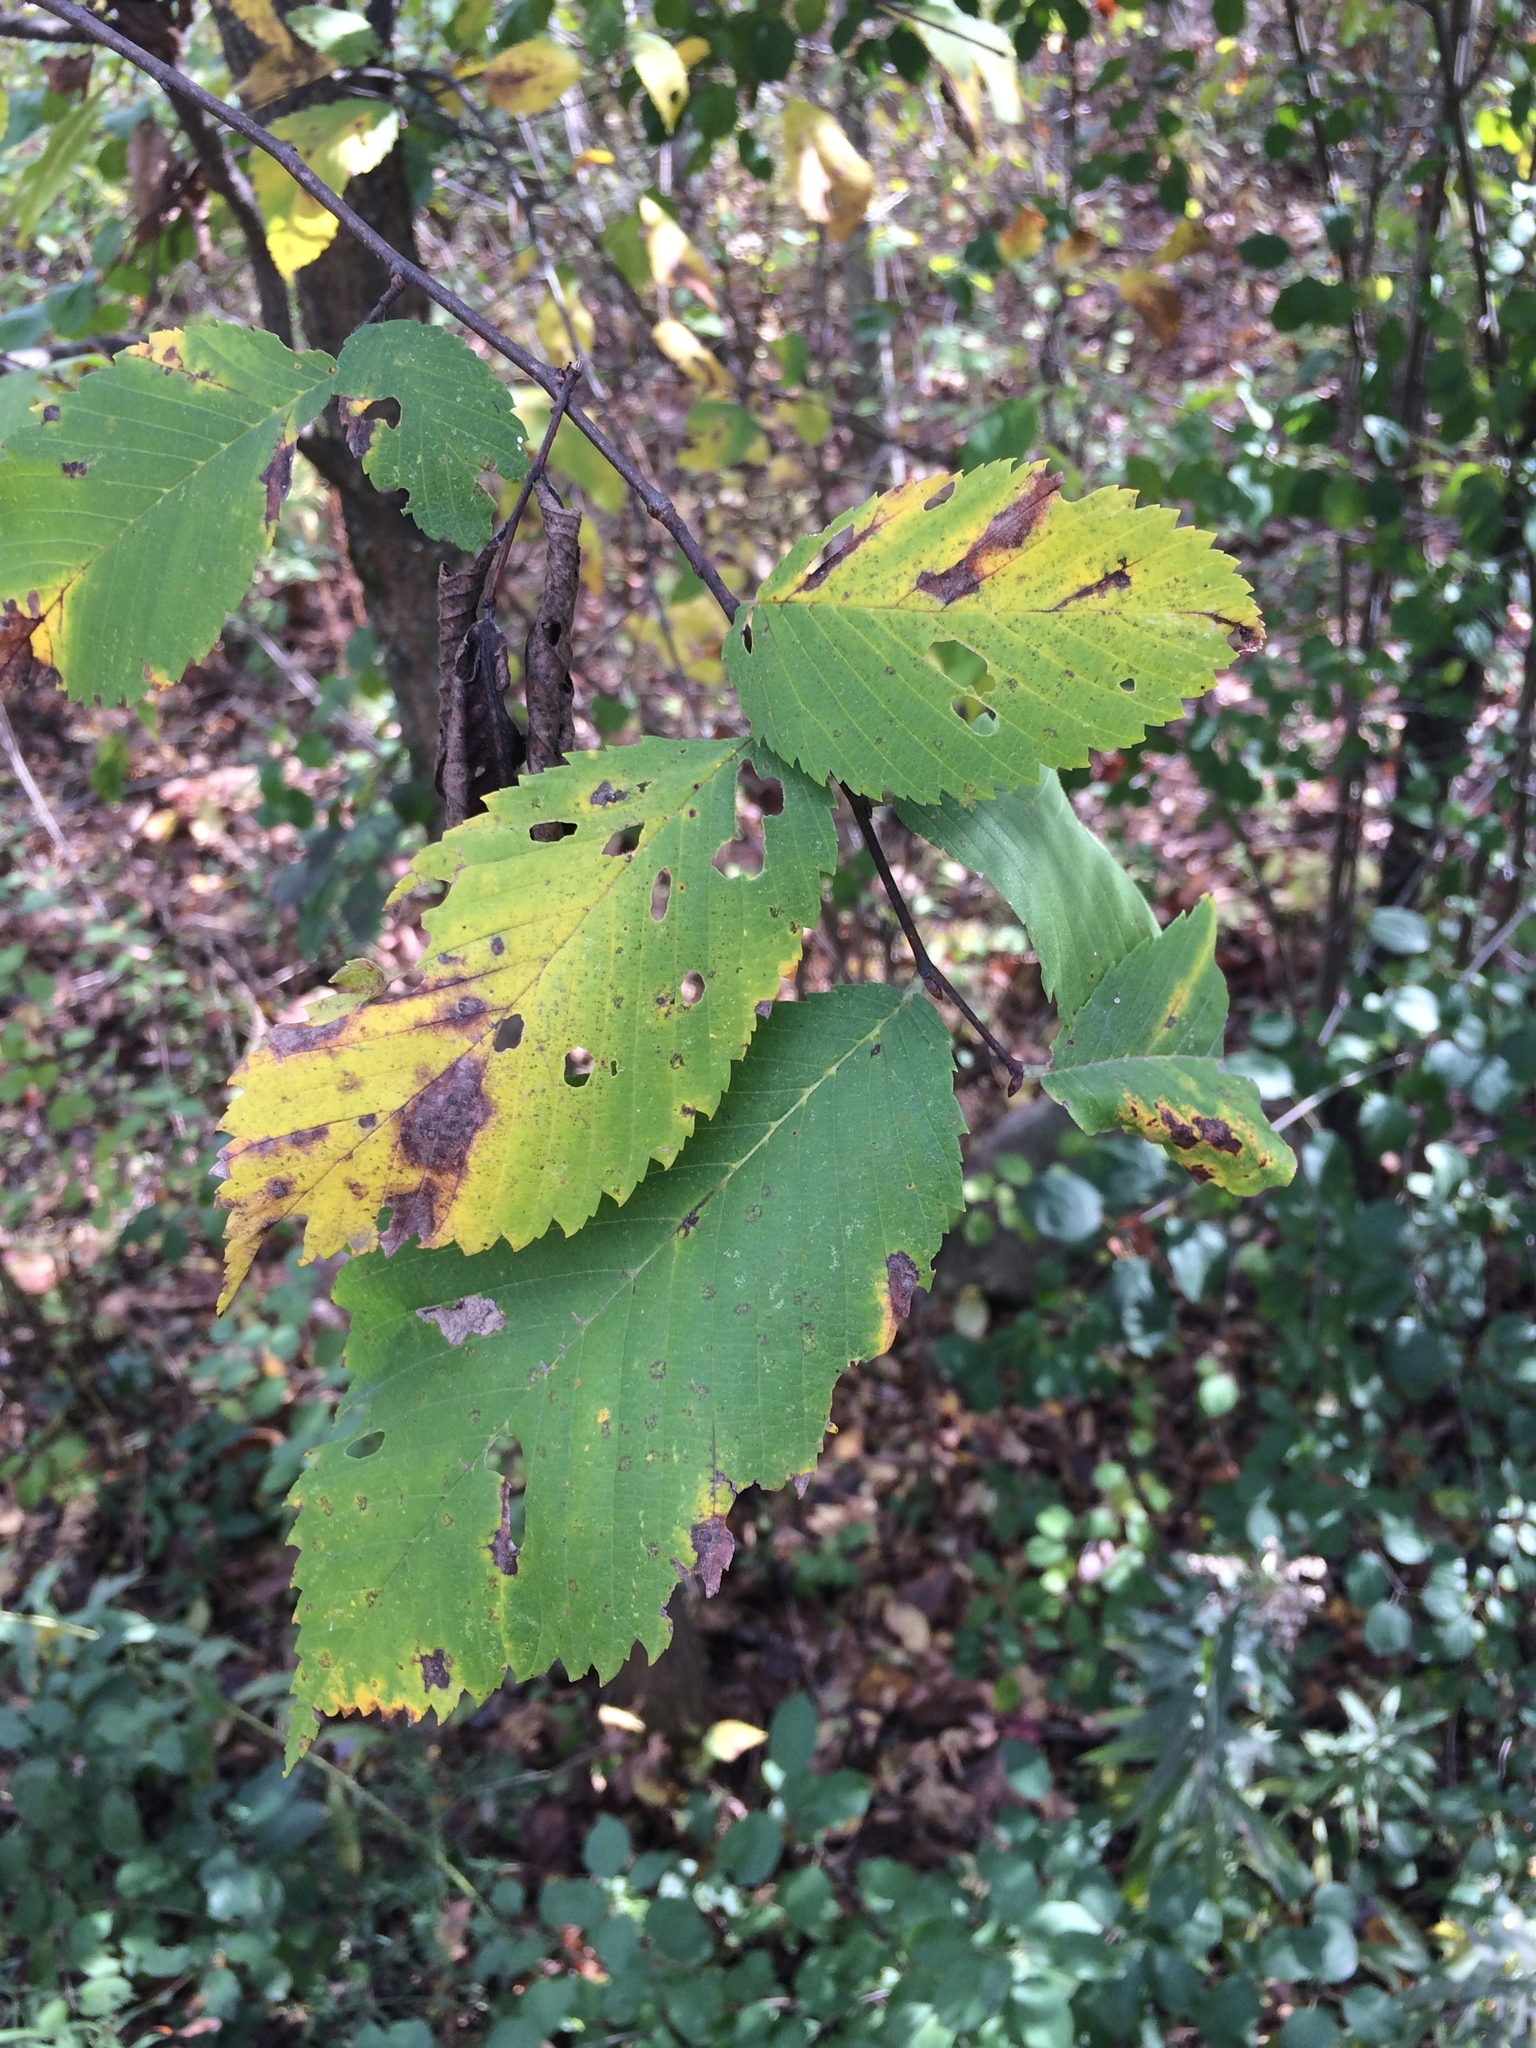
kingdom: Plantae
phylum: Tracheophyta
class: Magnoliopsida
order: Rosales
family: Ulmaceae
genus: Ulmus
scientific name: Ulmus americana
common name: American elm
